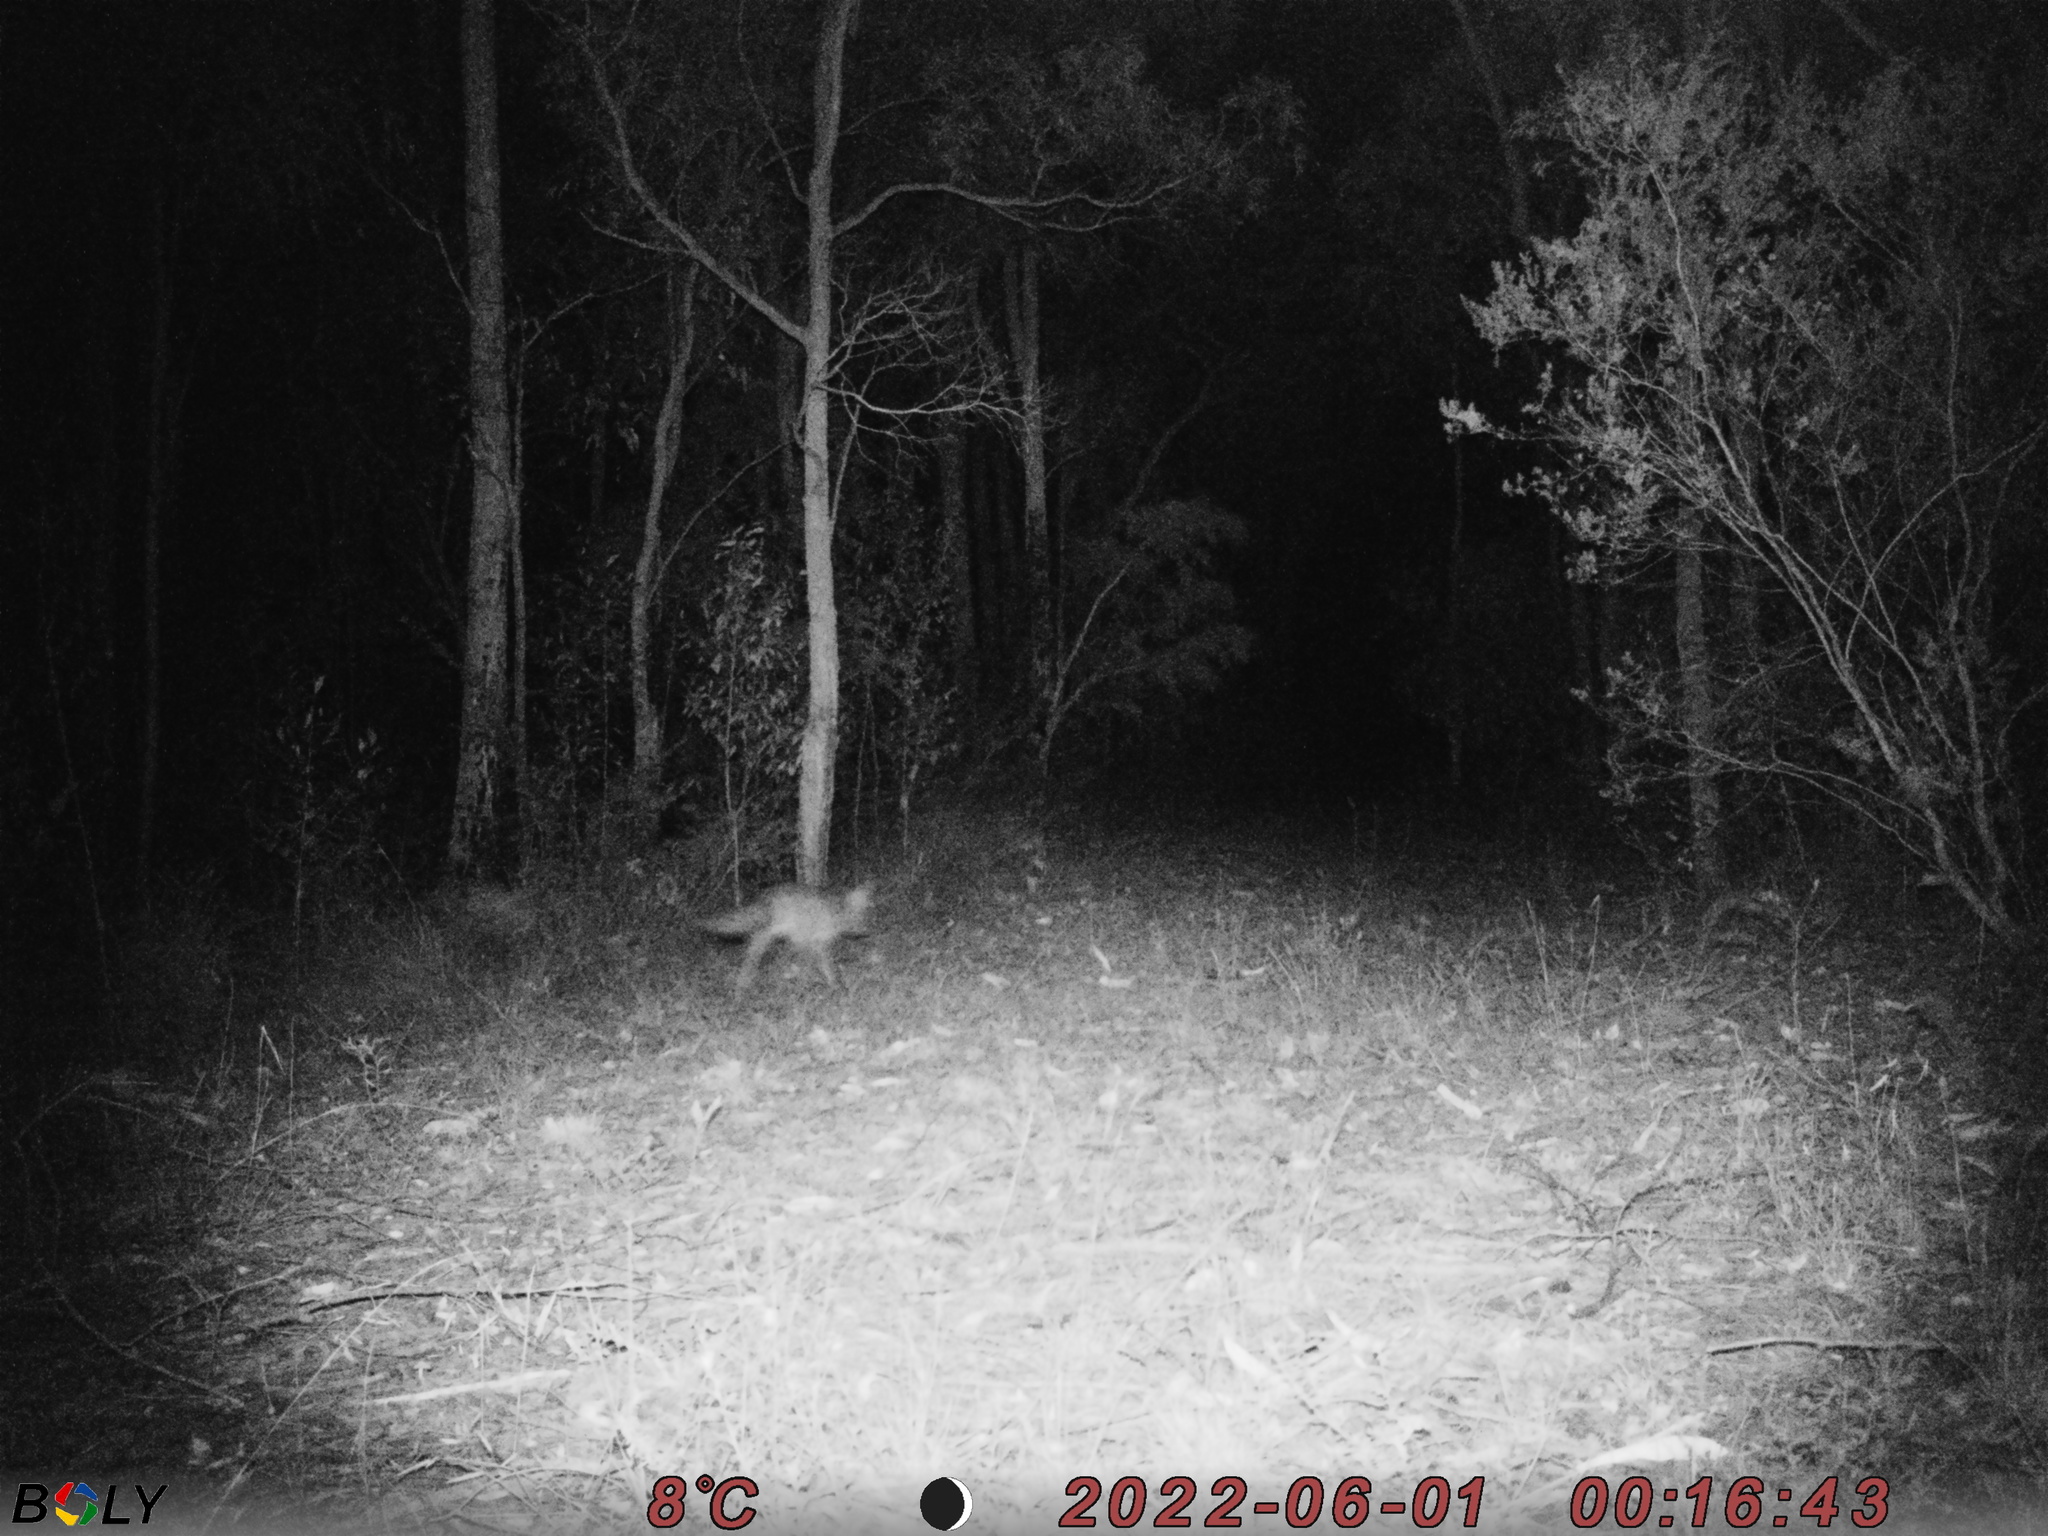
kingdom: Animalia
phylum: Chordata
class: Mammalia
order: Carnivora
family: Canidae
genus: Vulpes
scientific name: Vulpes vulpes
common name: Red fox
